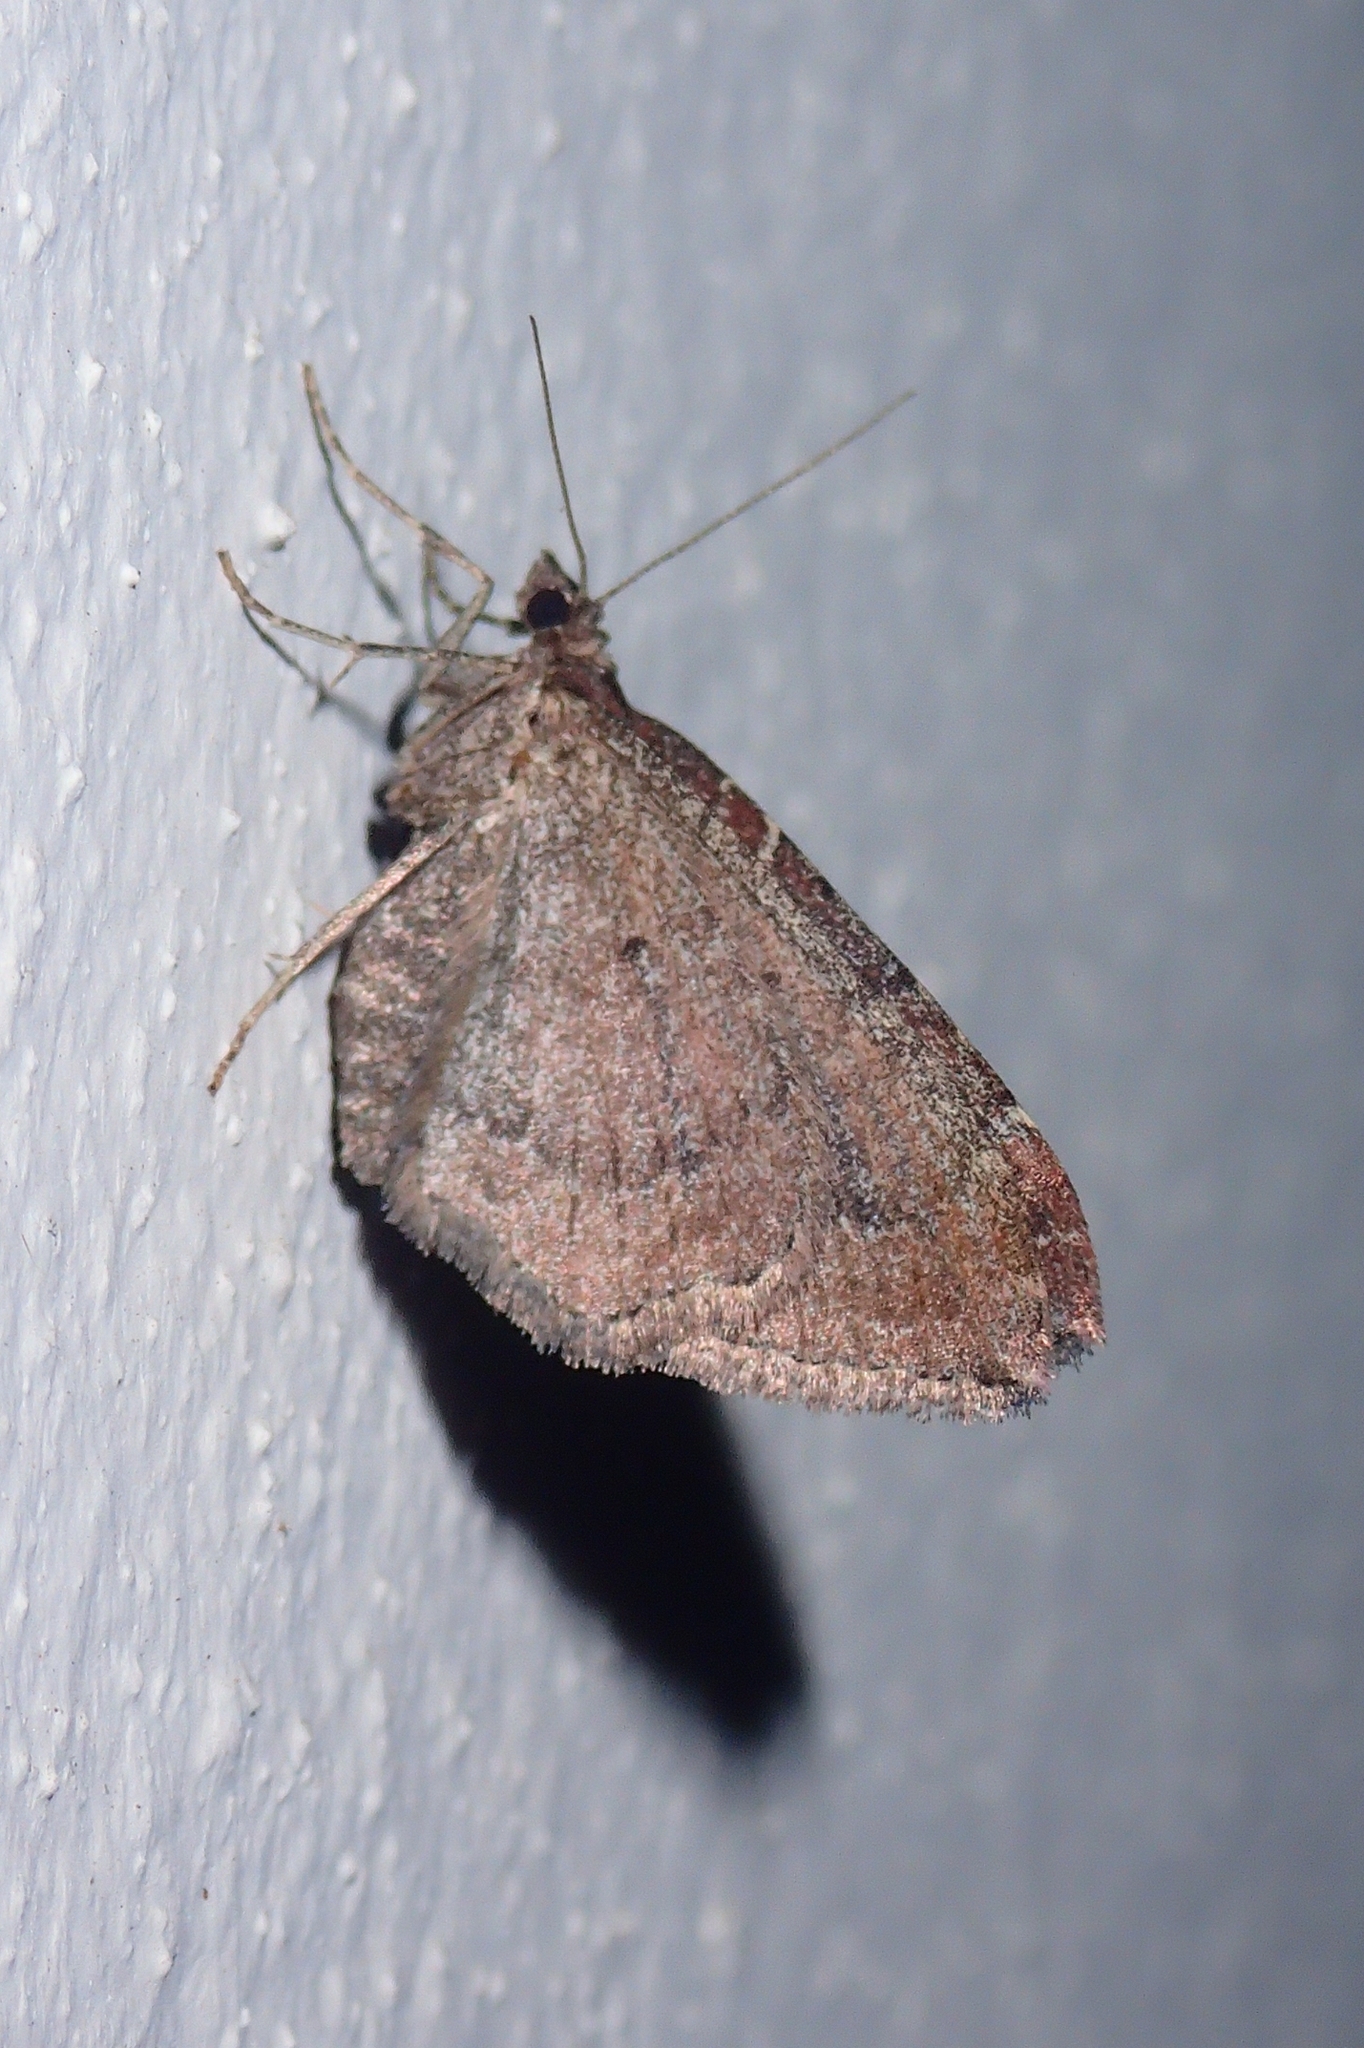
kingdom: Animalia
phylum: Arthropoda
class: Insecta
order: Lepidoptera
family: Geometridae
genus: Orthonama
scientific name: Orthonama obstipata
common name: The gem
